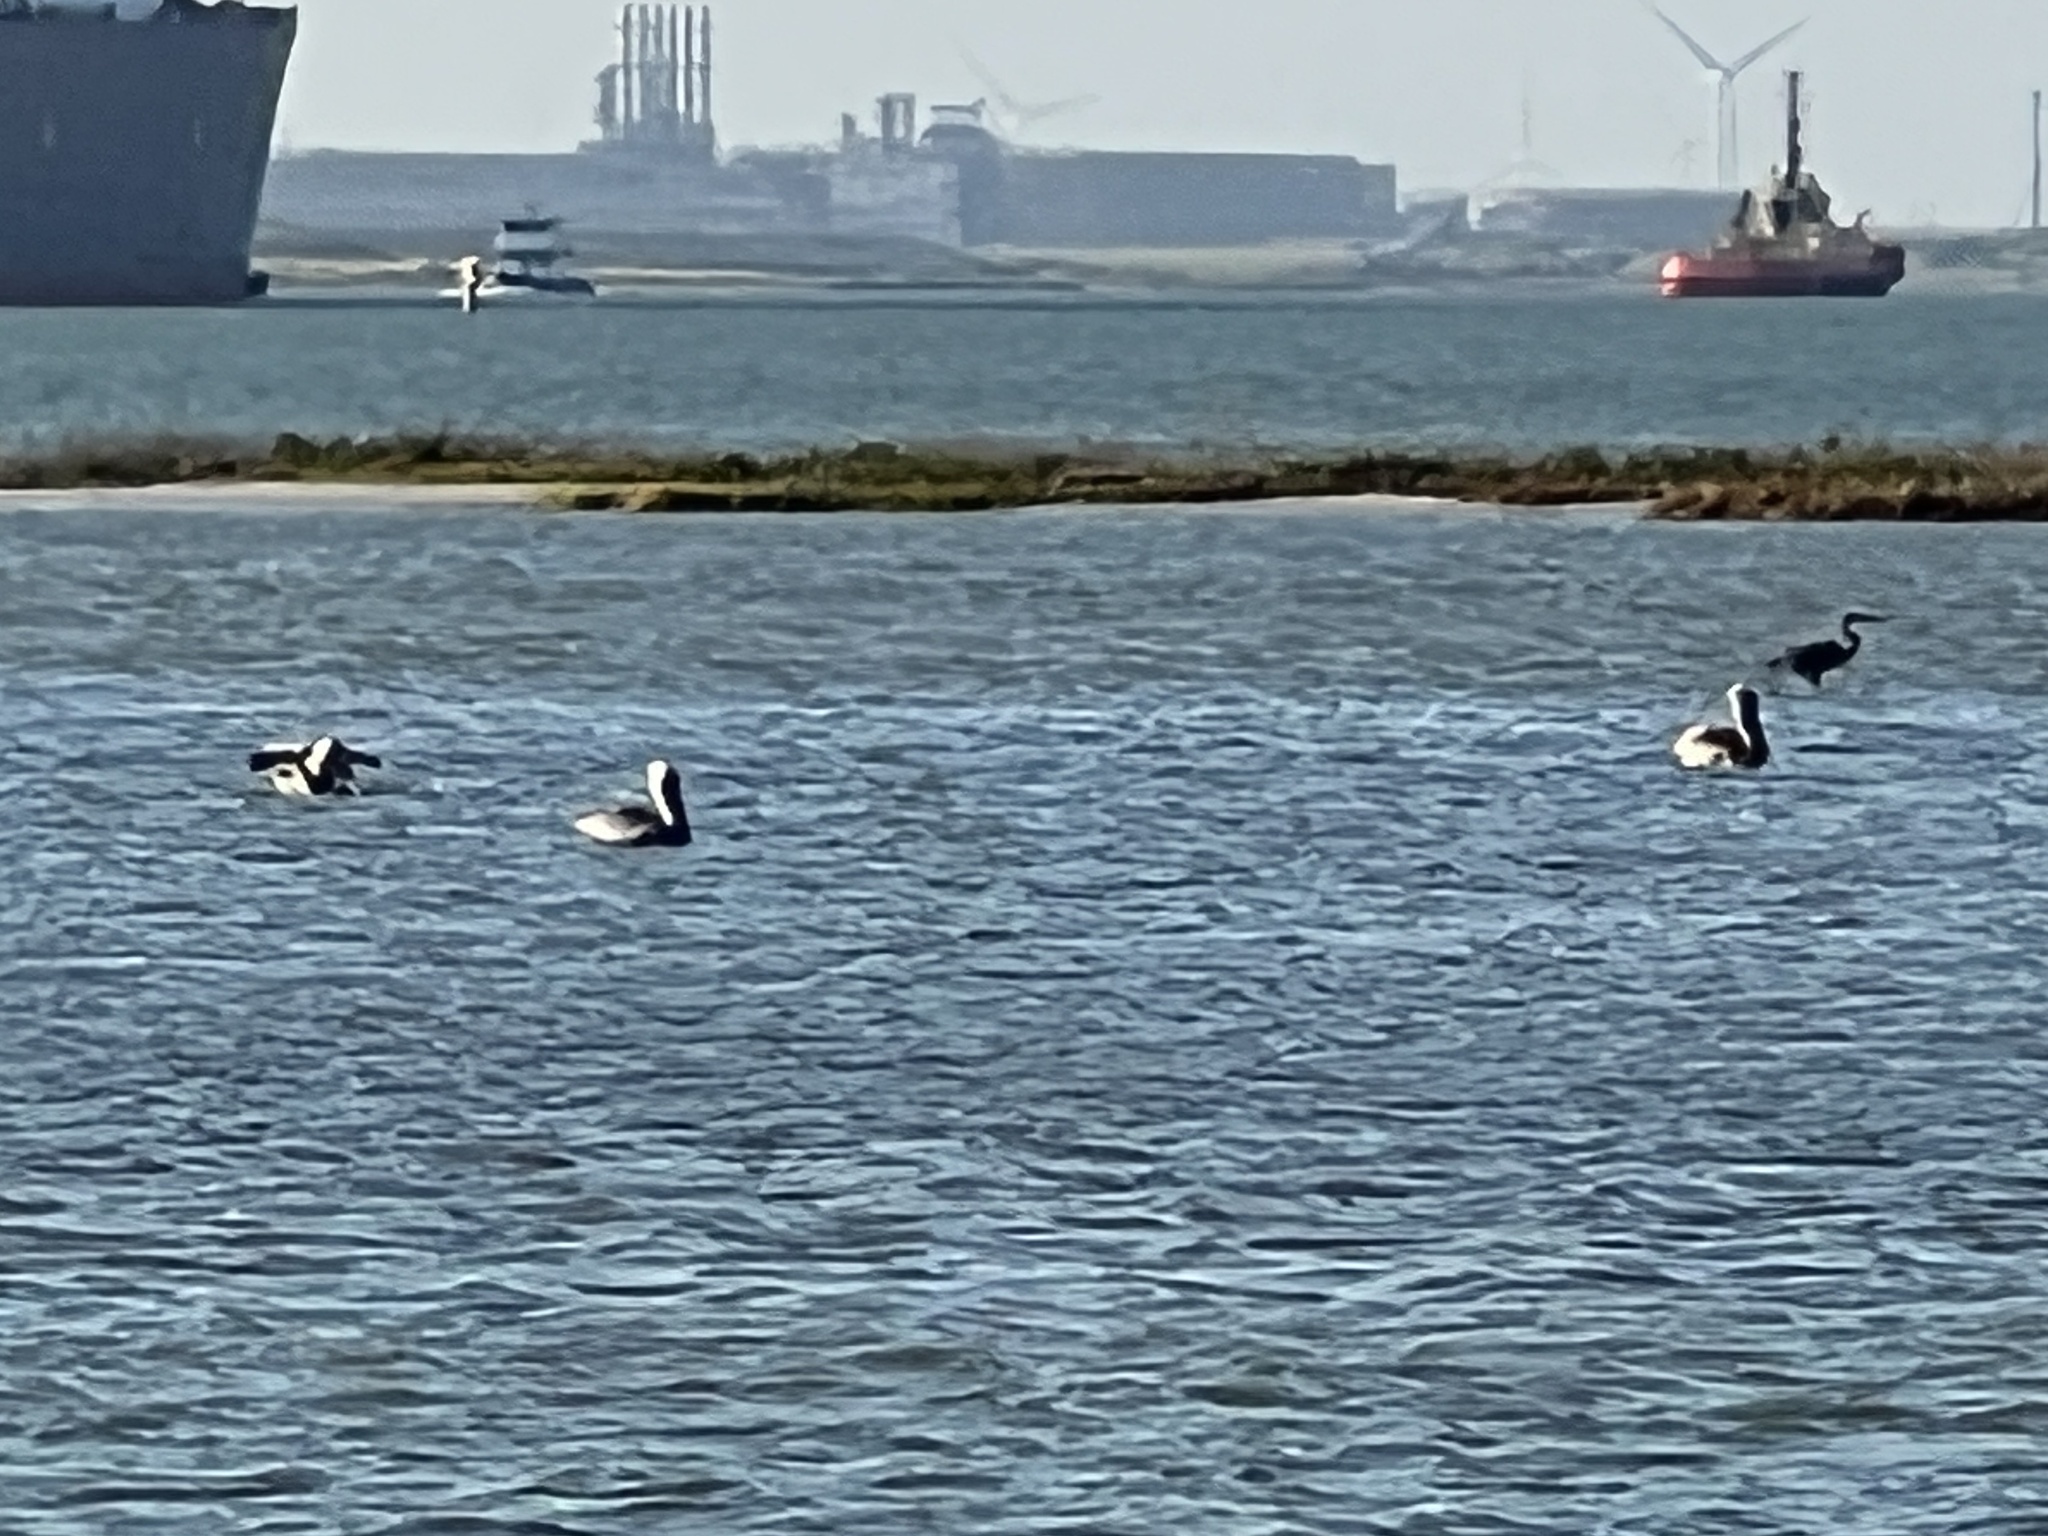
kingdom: Animalia
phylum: Chordata
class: Aves
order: Pelecaniformes
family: Pelecanidae
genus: Pelecanus
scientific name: Pelecanus occidentalis
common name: Brown pelican
